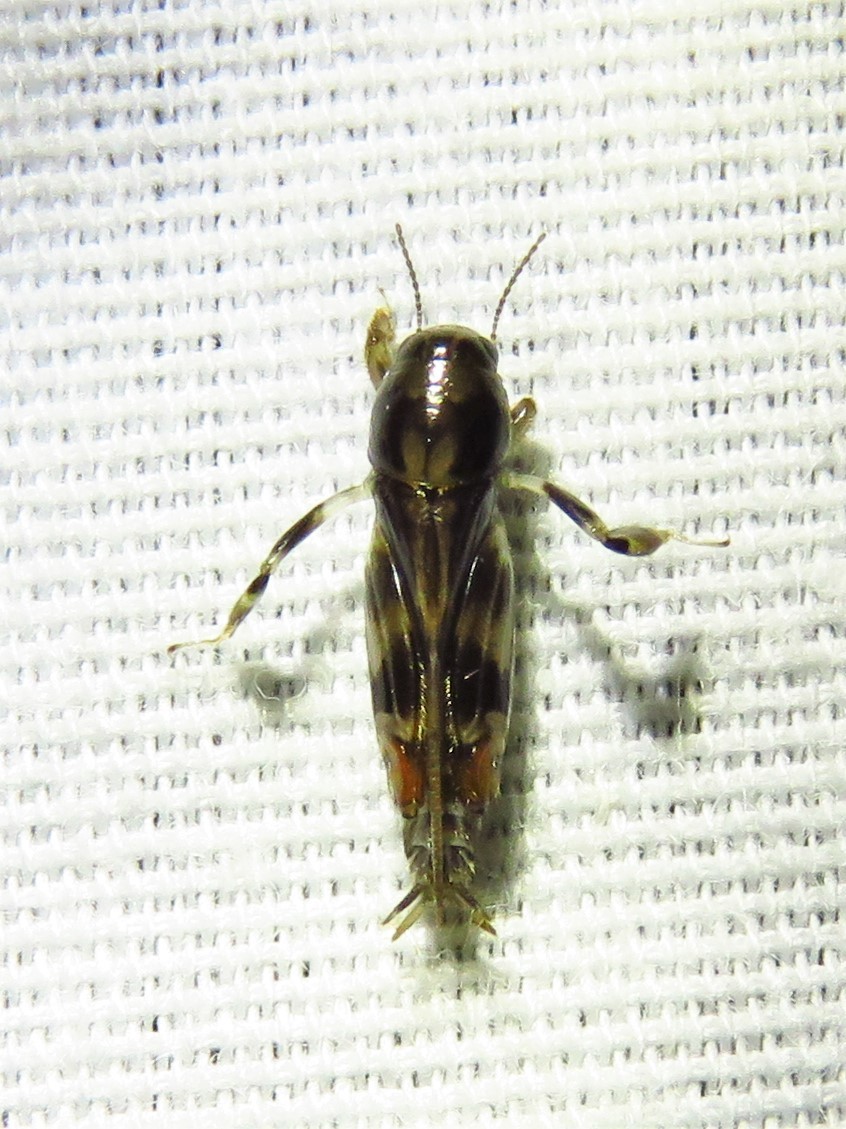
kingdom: Animalia
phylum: Arthropoda
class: Insecta
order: Orthoptera
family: Tridactylidae
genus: Neotridactylus
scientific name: Neotridactylus apicialis
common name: Larger pygmy locust
